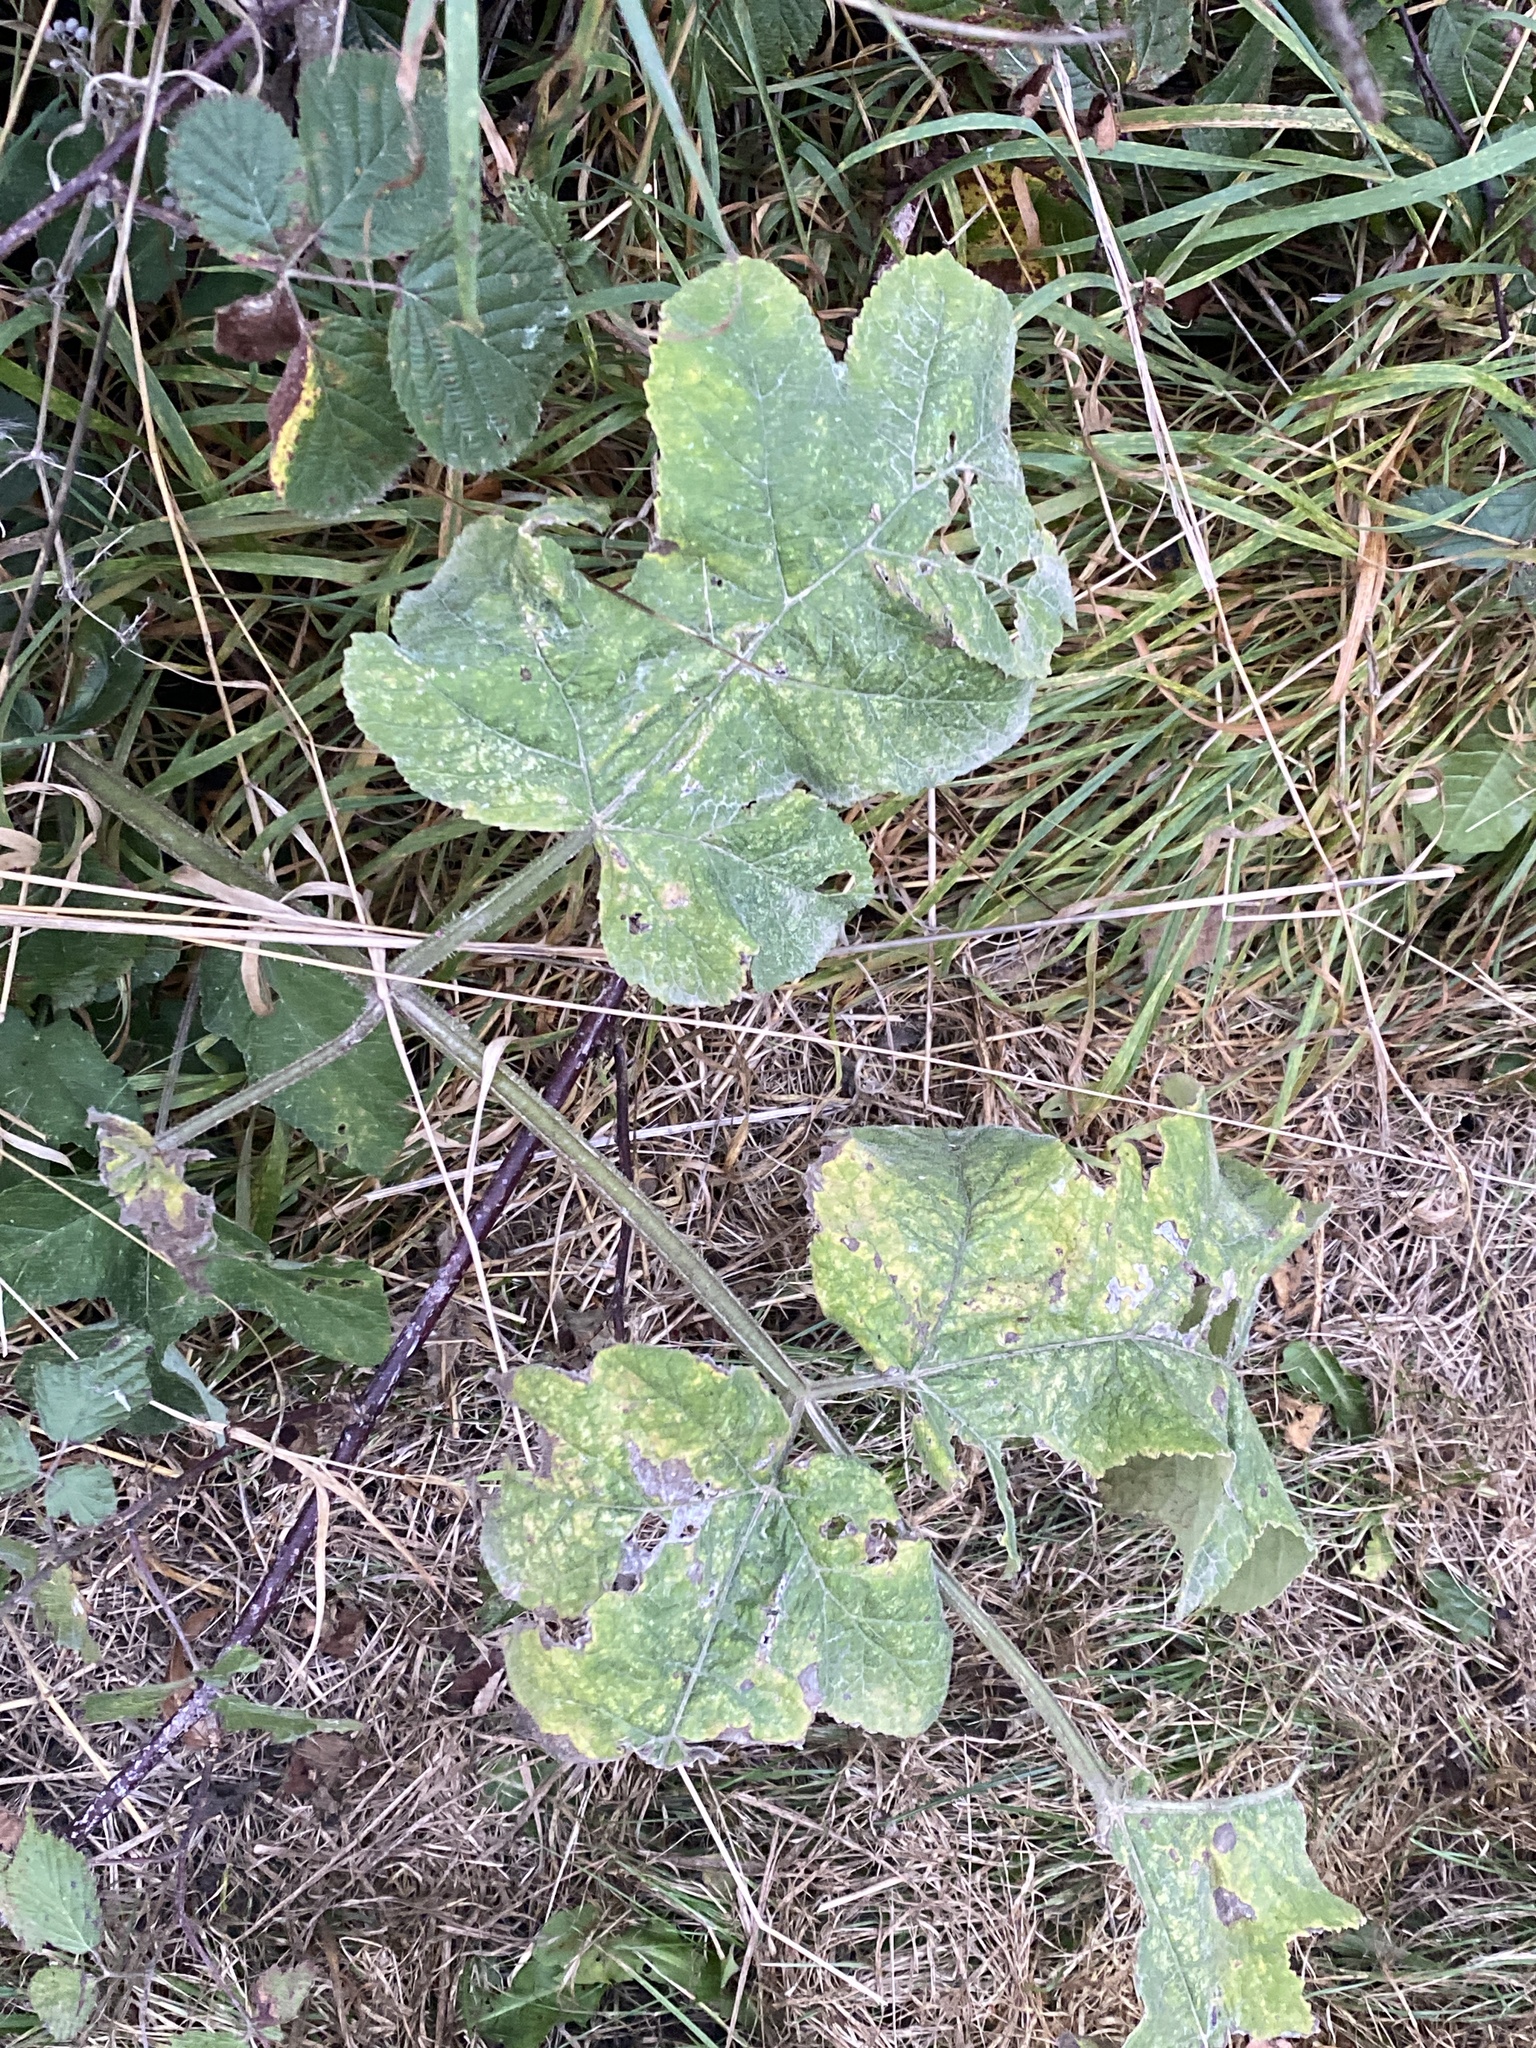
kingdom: Plantae
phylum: Tracheophyta
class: Magnoliopsida
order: Apiales
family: Apiaceae
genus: Heracleum
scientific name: Heracleum sphondylium
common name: Hogweed
